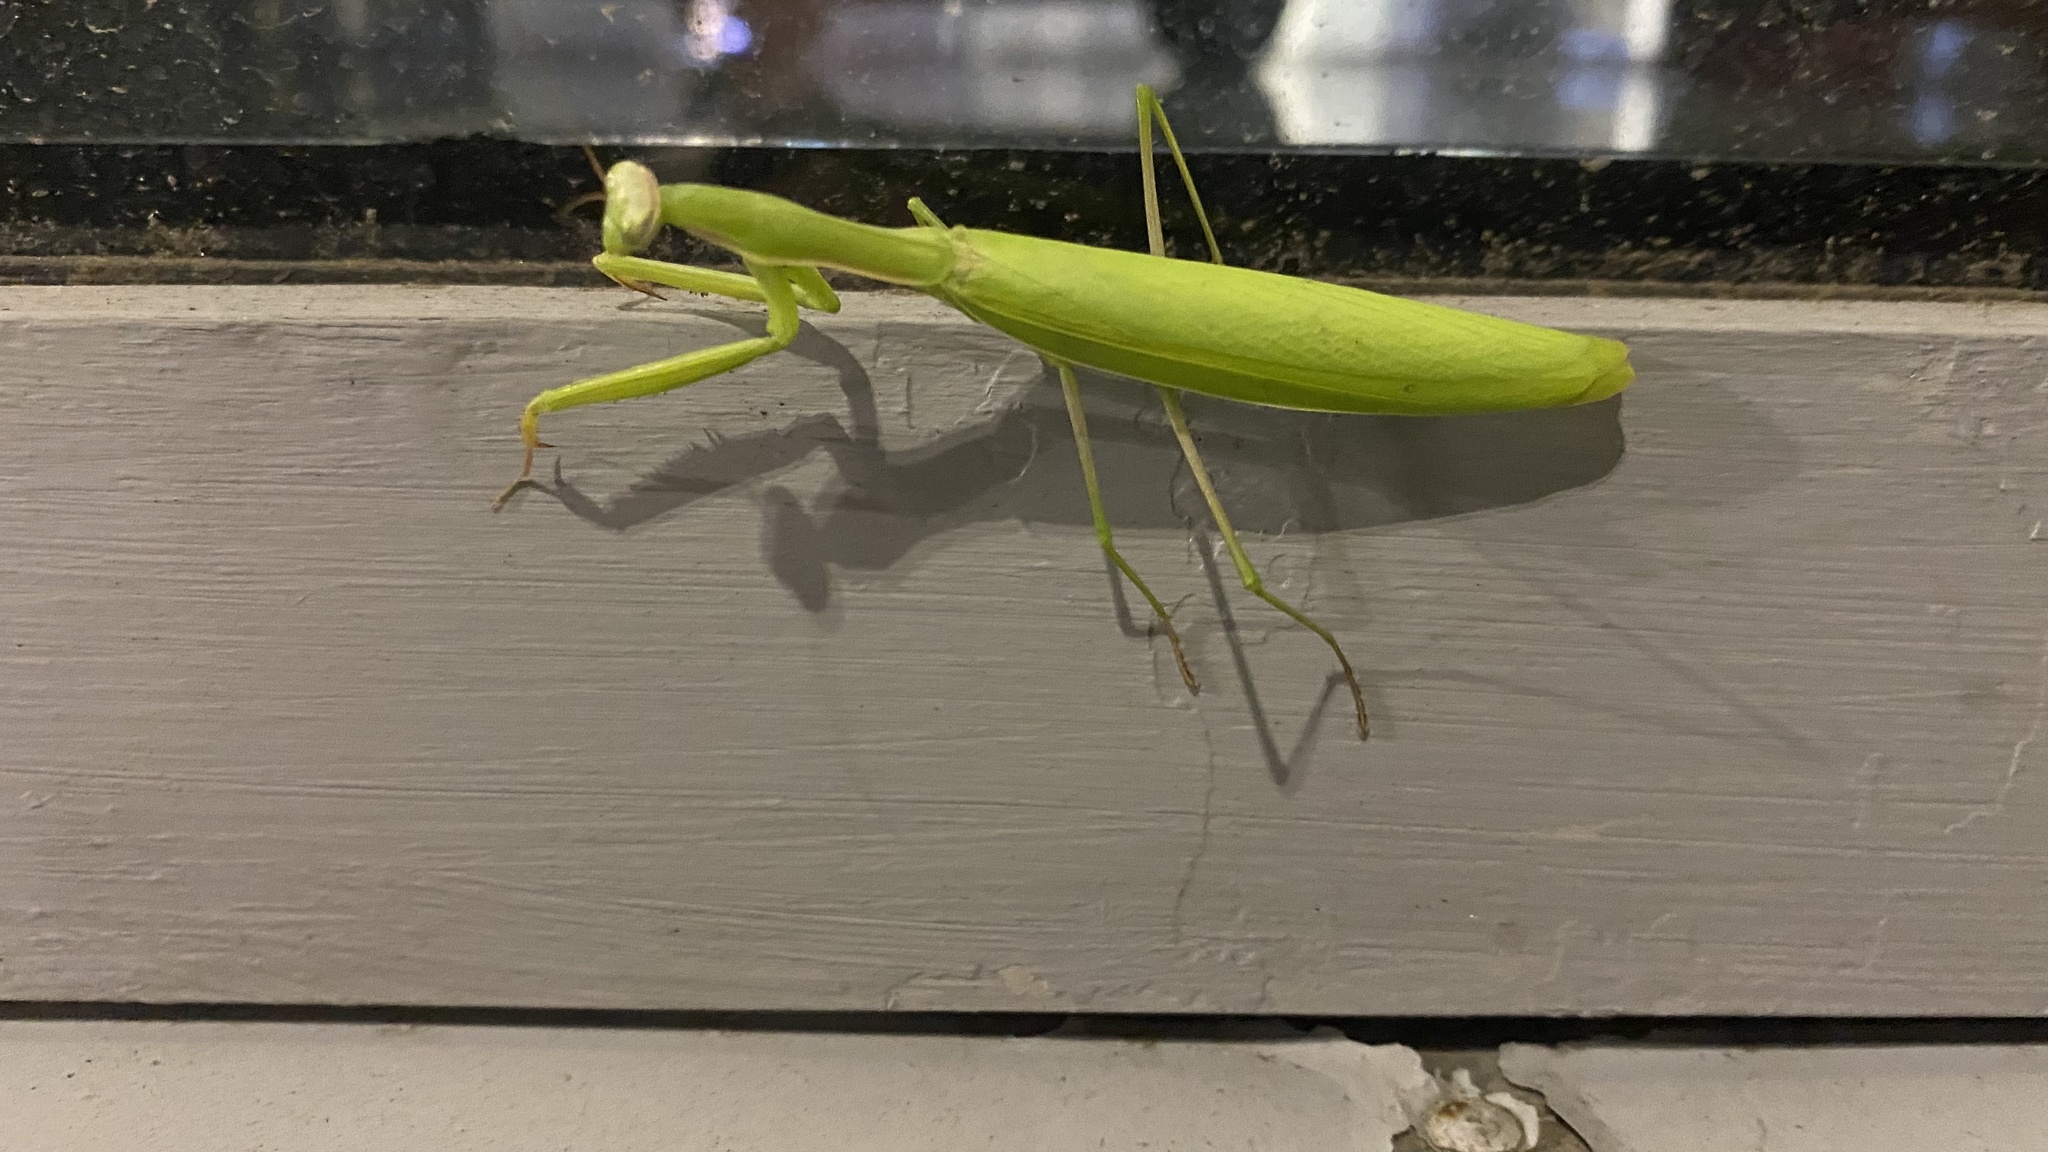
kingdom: Animalia
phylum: Arthropoda
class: Insecta
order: Mantodea
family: Mantidae
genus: Mantis
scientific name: Mantis religiosa
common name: Praying mantis
